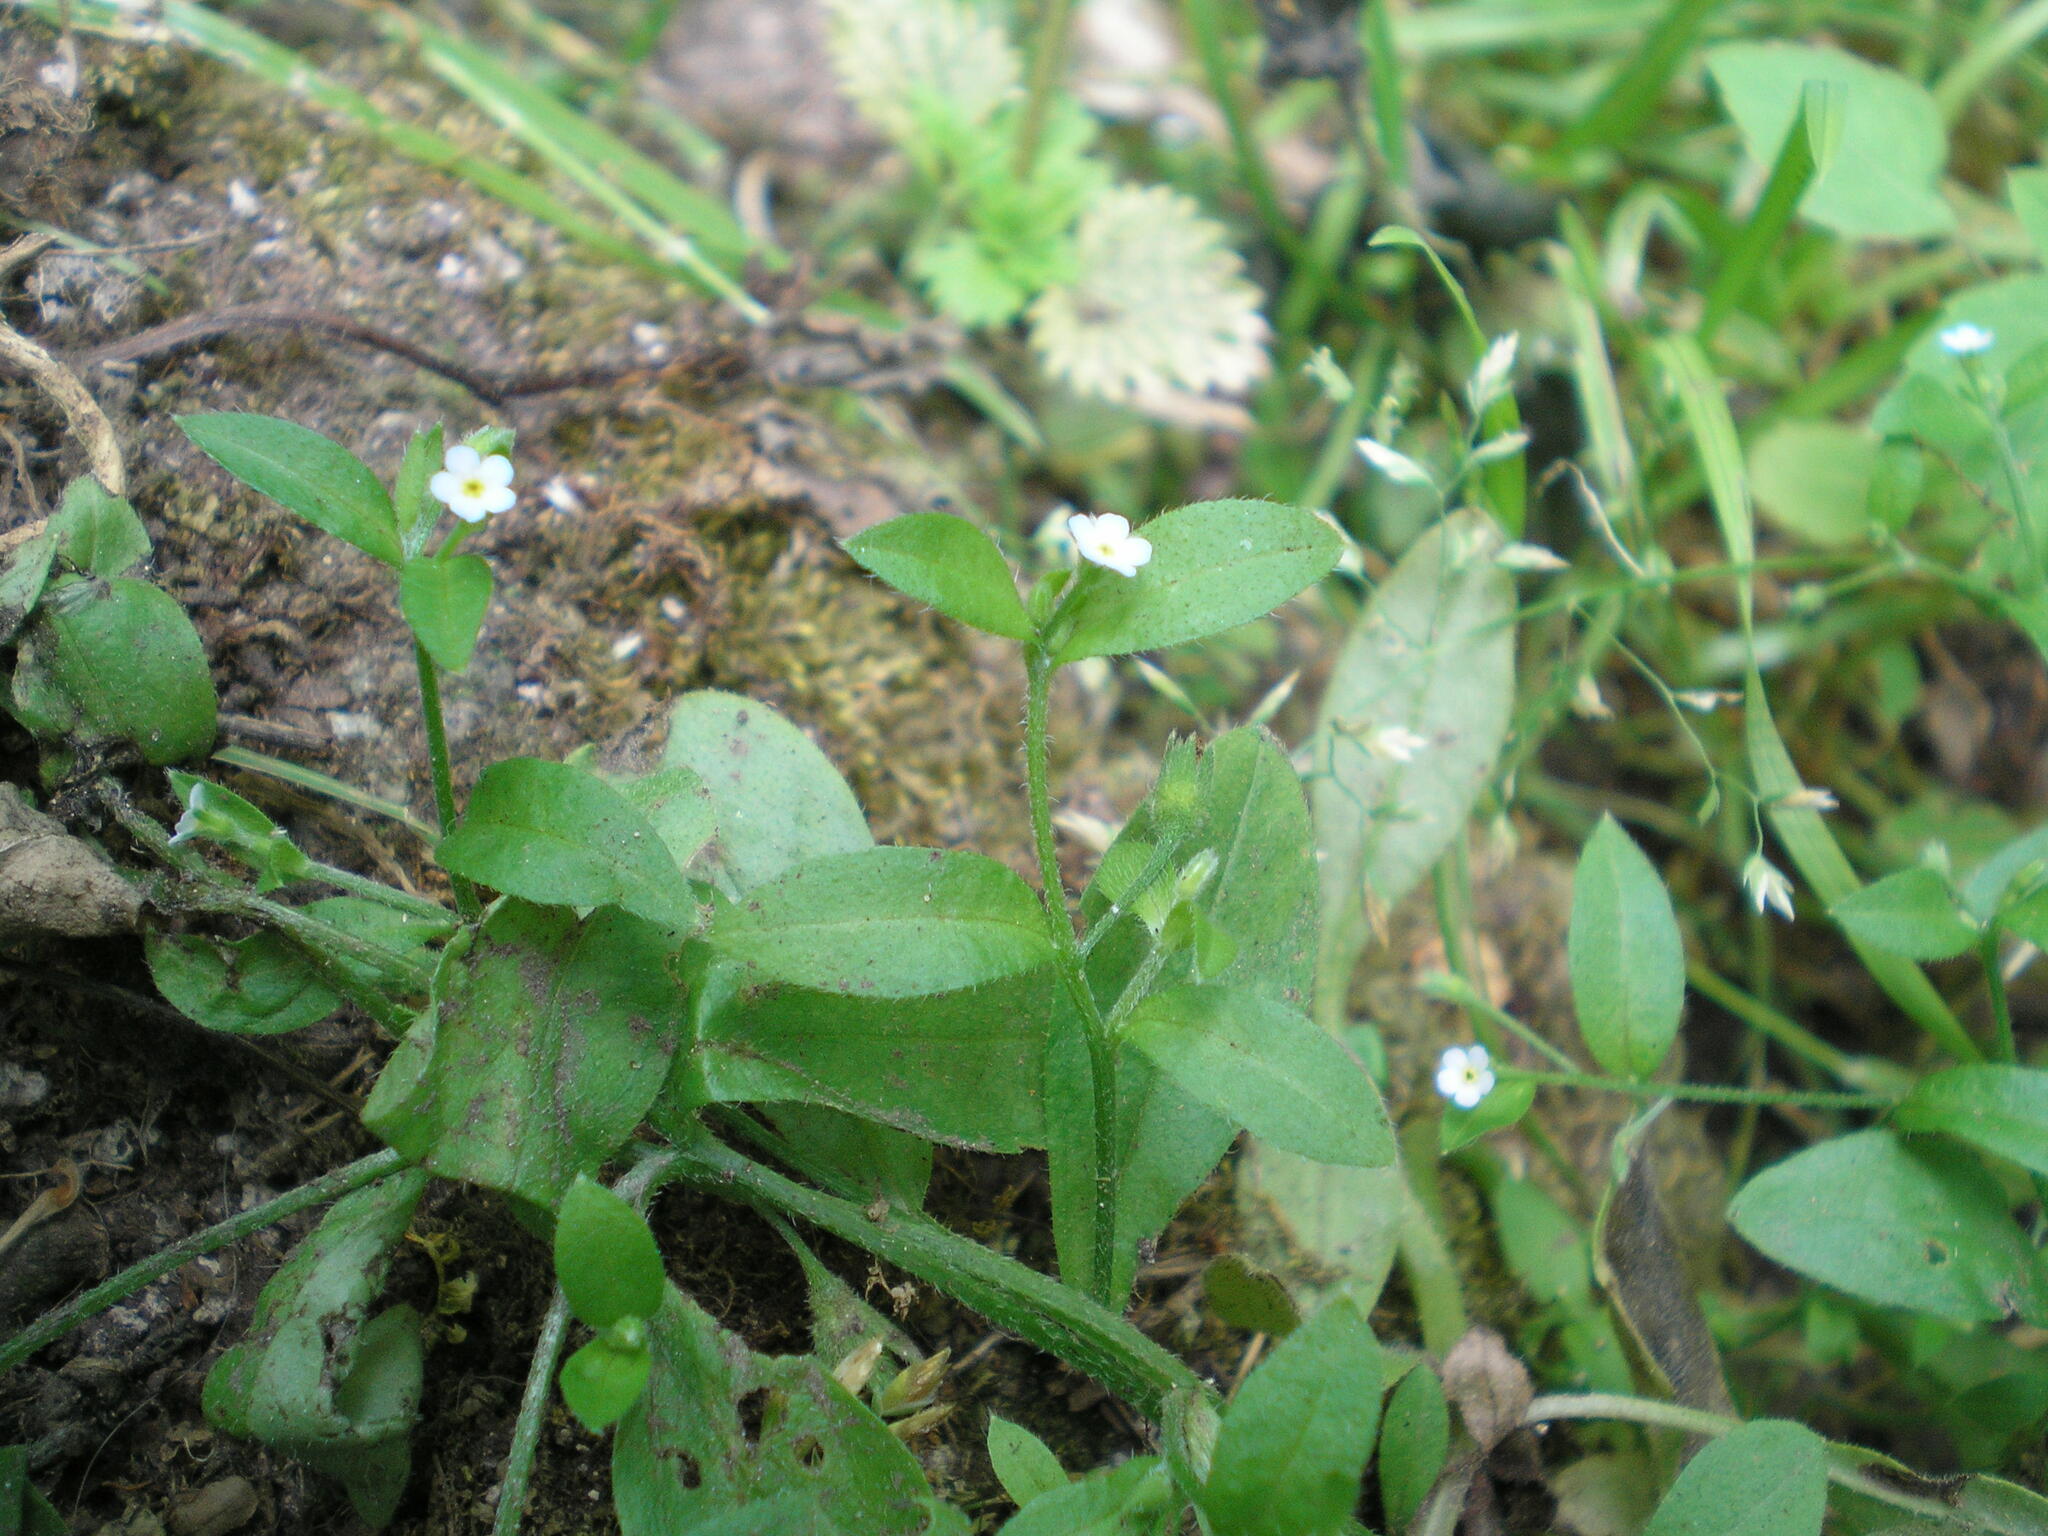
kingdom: Plantae
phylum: Tracheophyta
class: Magnoliopsida
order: Boraginales
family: Boraginaceae
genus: Myosotis
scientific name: Myosotis sparsiflora
